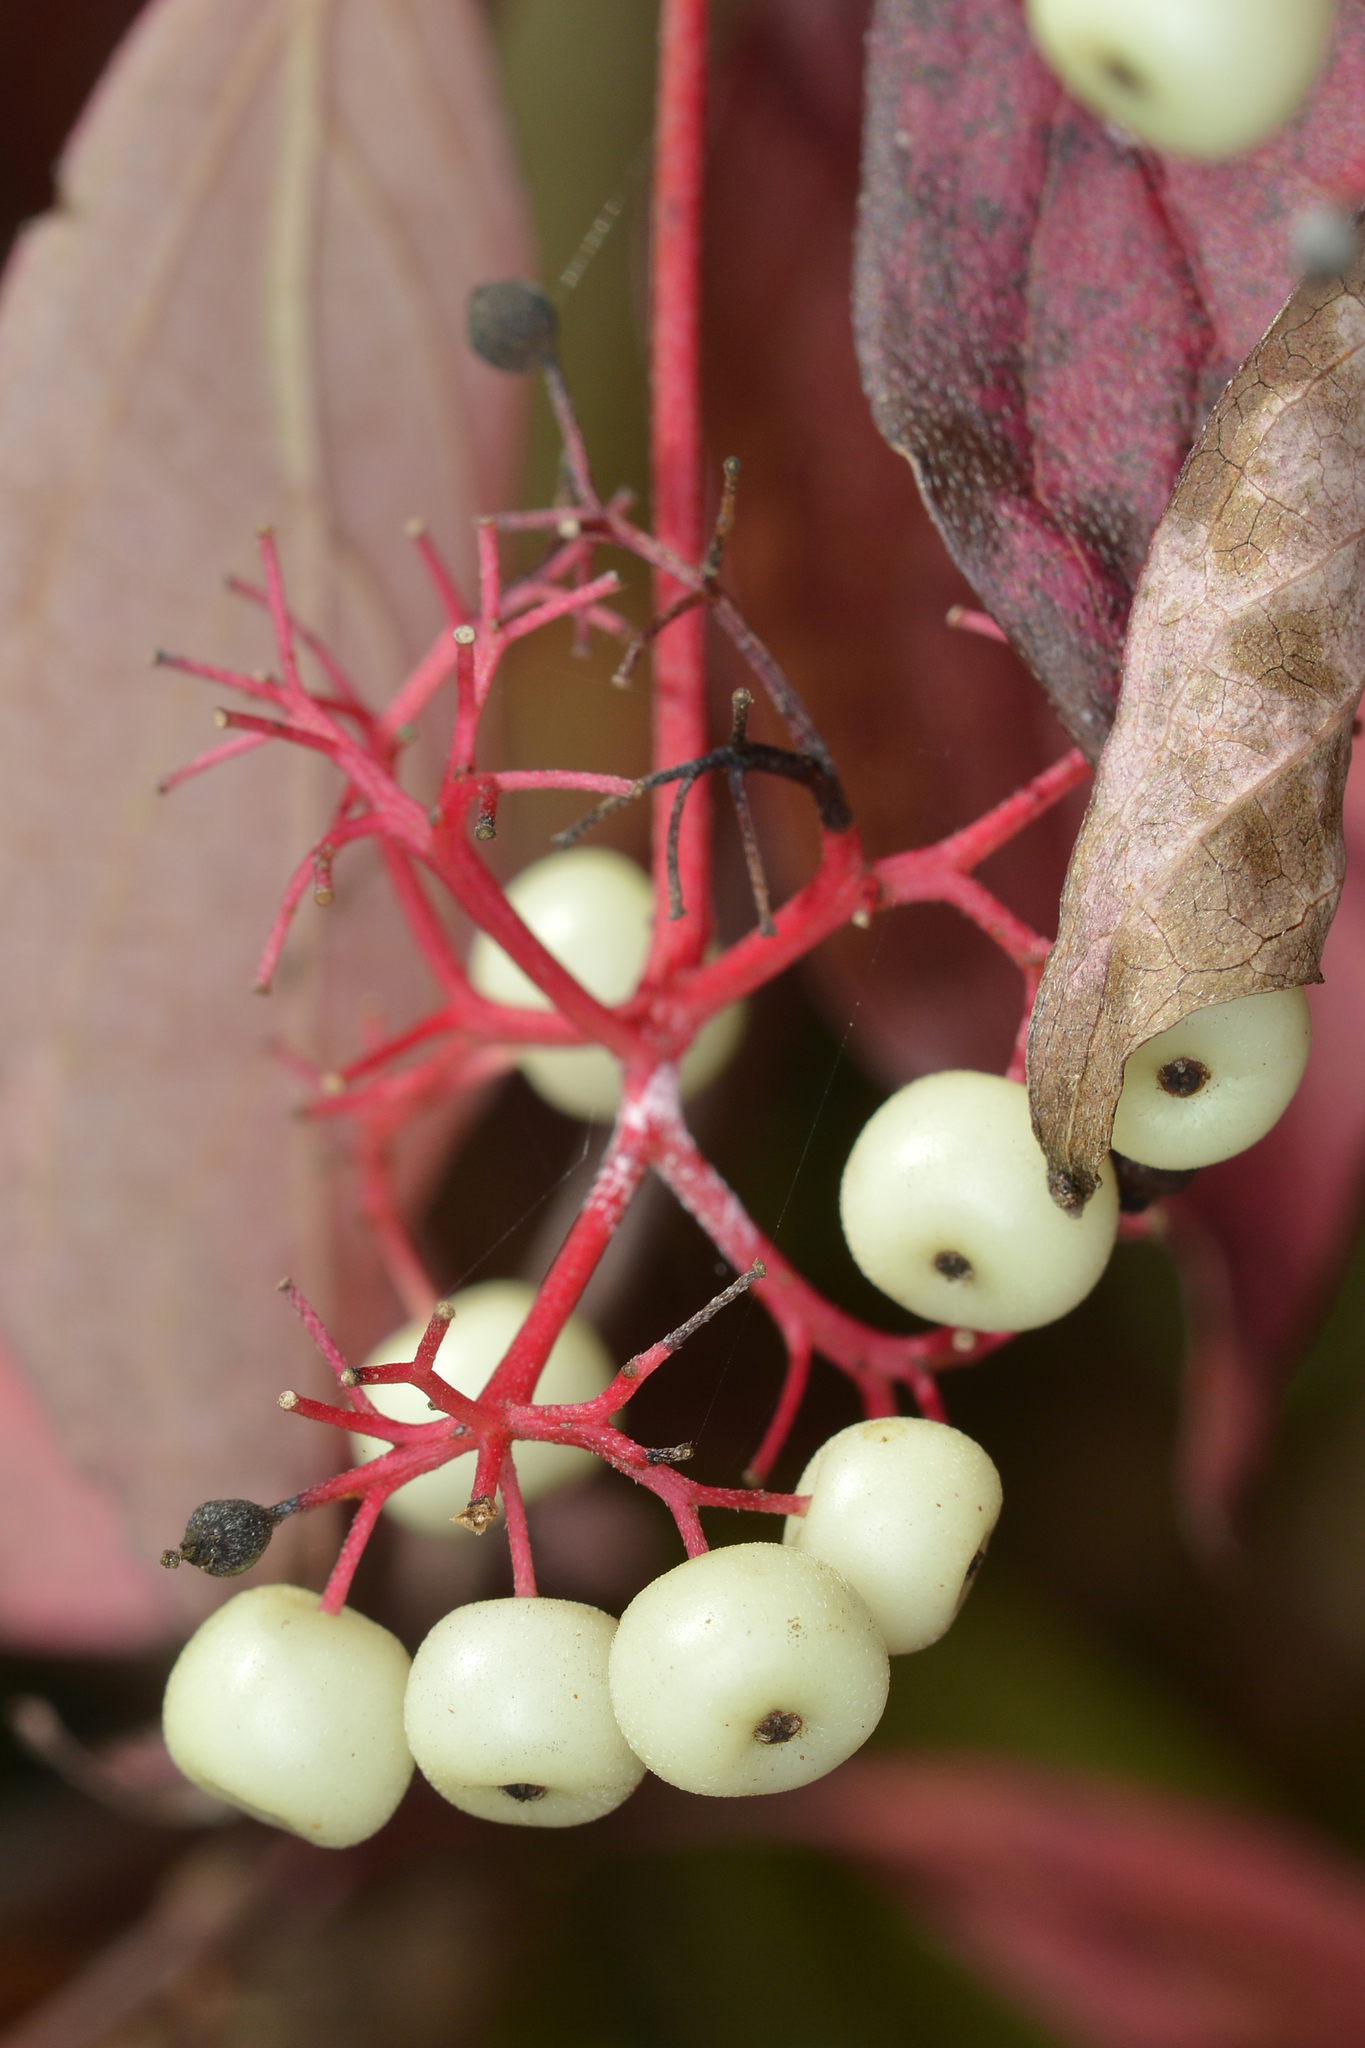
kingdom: Plantae
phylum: Tracheophyta
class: Magnoliopsida
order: Cornales
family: Cornaceae
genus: Cornus
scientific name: Cornus racemosa
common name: Panicled dogwood
